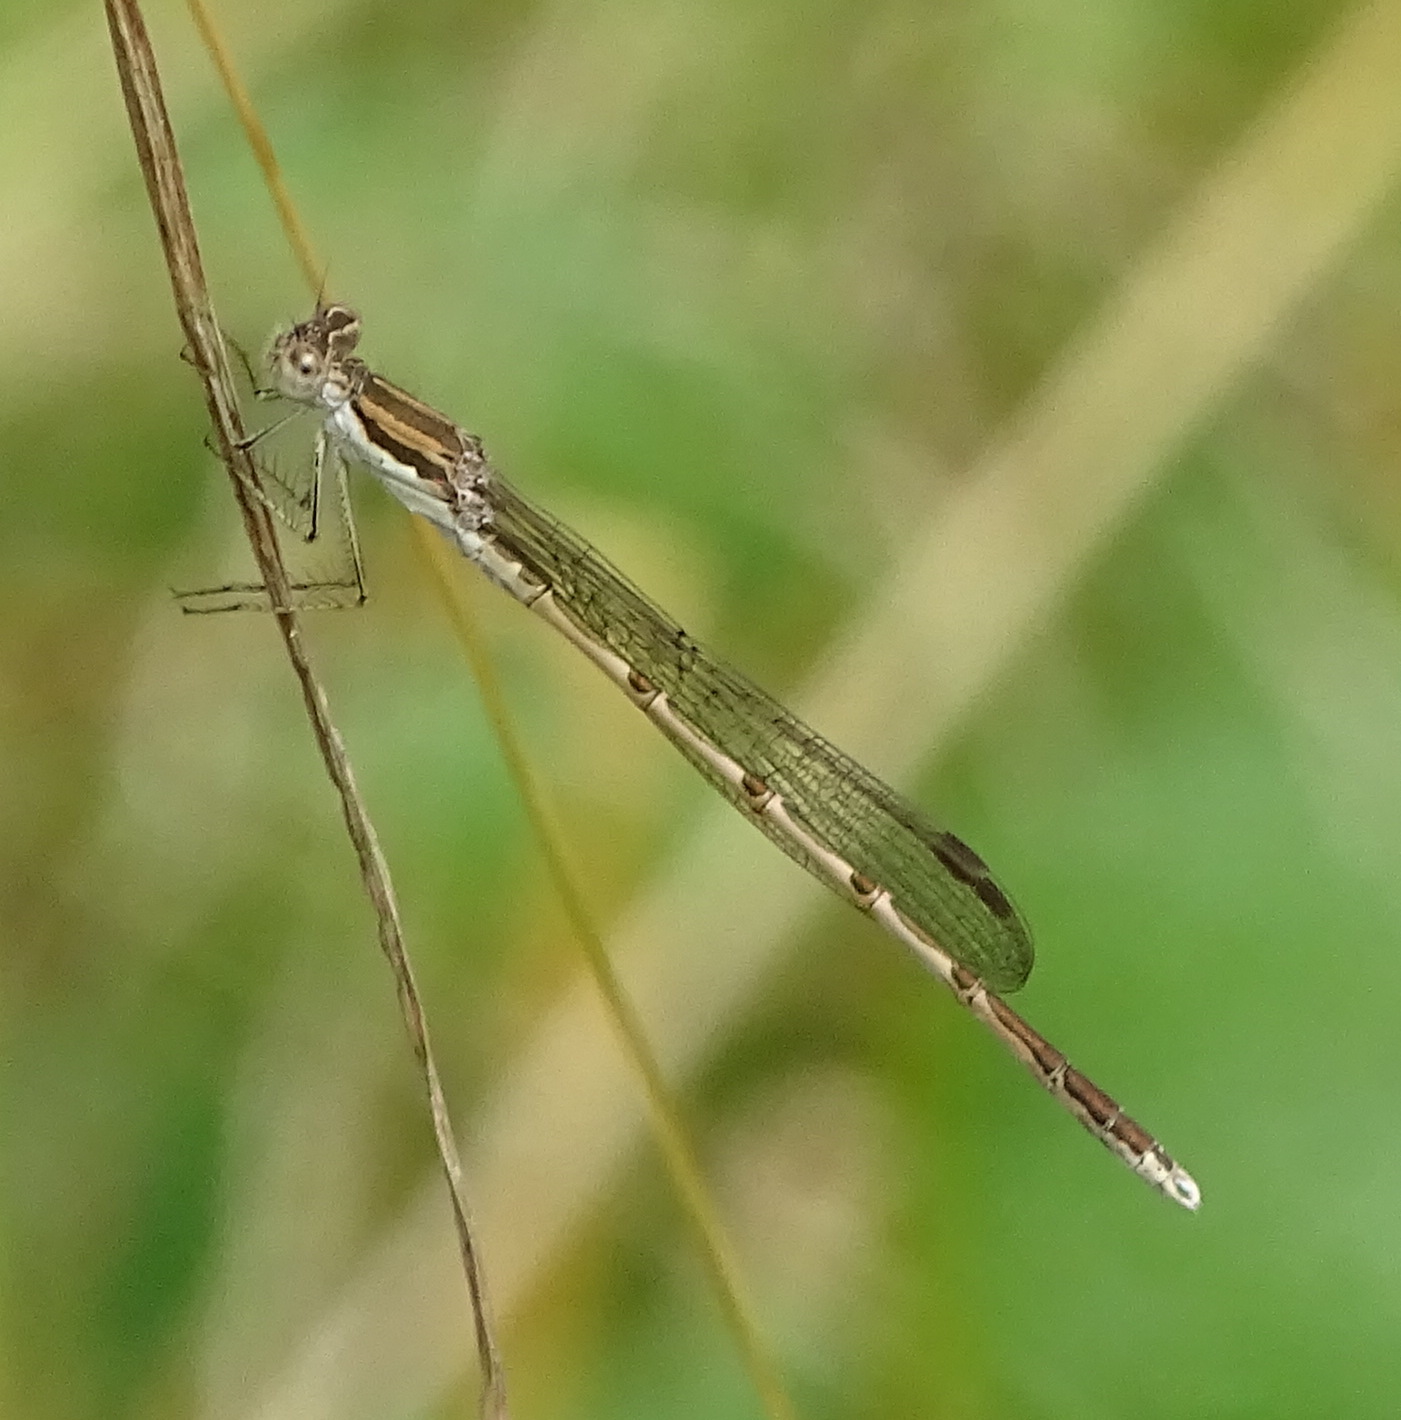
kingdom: Animalia
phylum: Arthropoda
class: Insecta
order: Odonata
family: Lestidae
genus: Sympecma
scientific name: Sympecma fusca
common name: Common winter damsel
